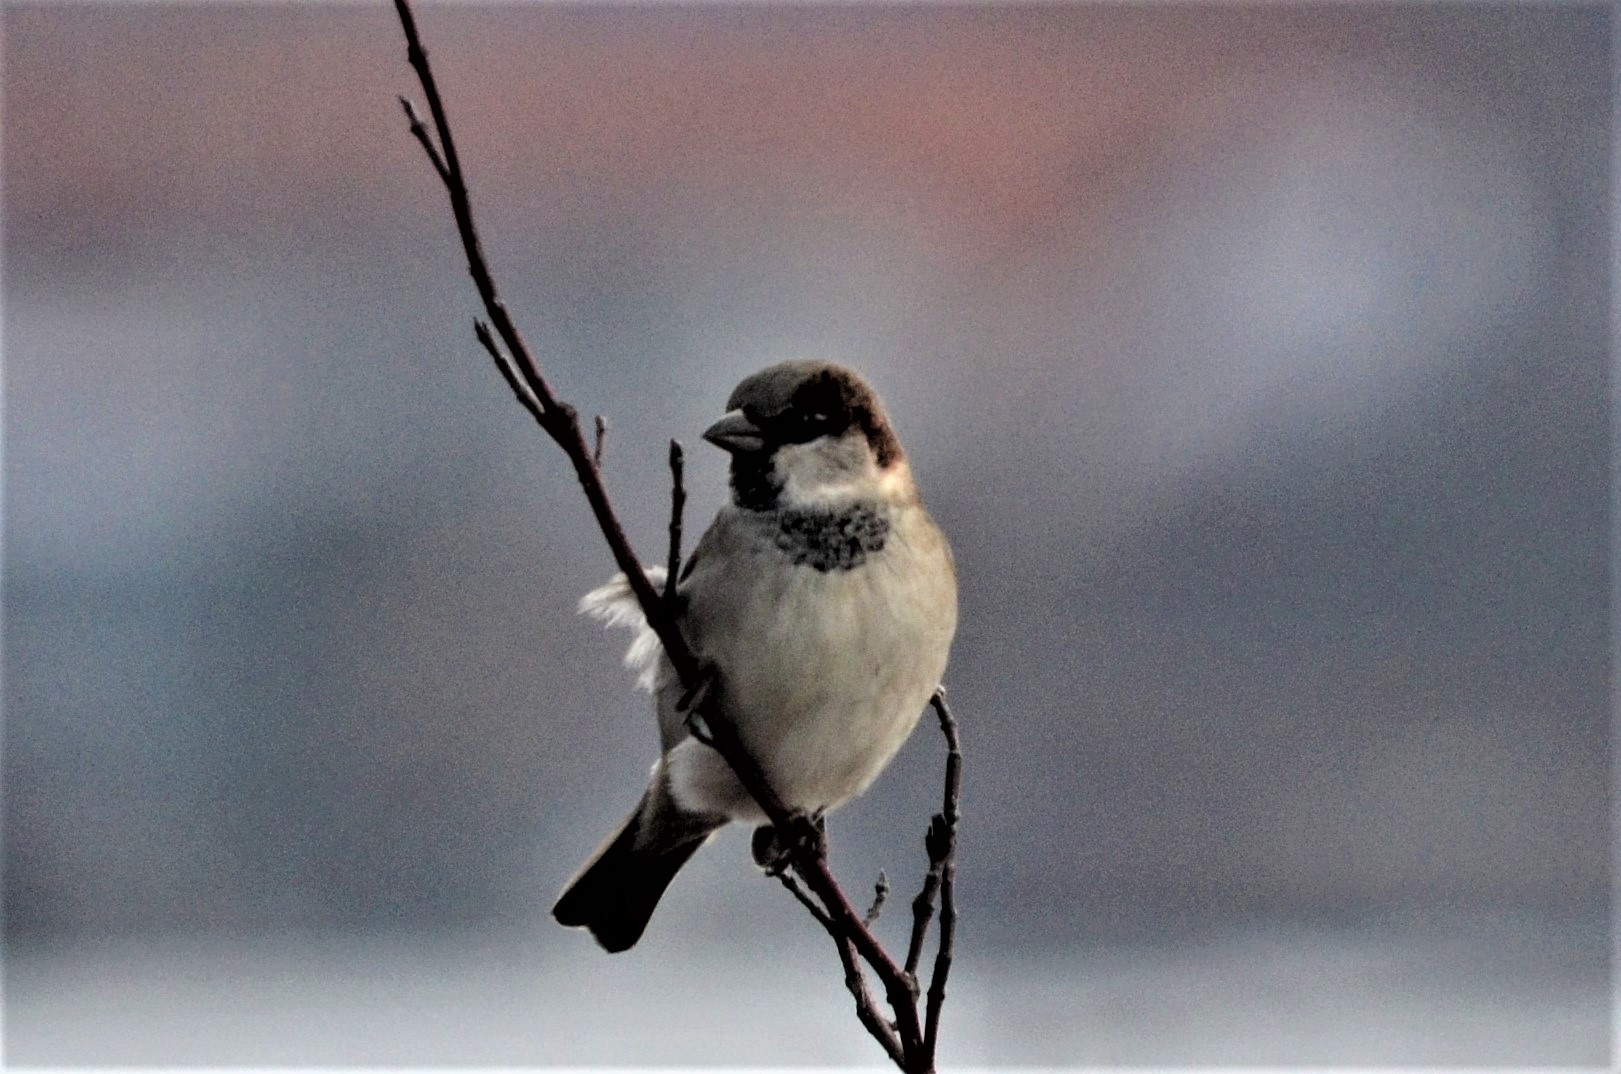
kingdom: Animalia
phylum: Chordata
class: Aves
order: Passeriformes
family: Passeridae
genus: Passer
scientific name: Passer domesticus
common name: House sparrow
